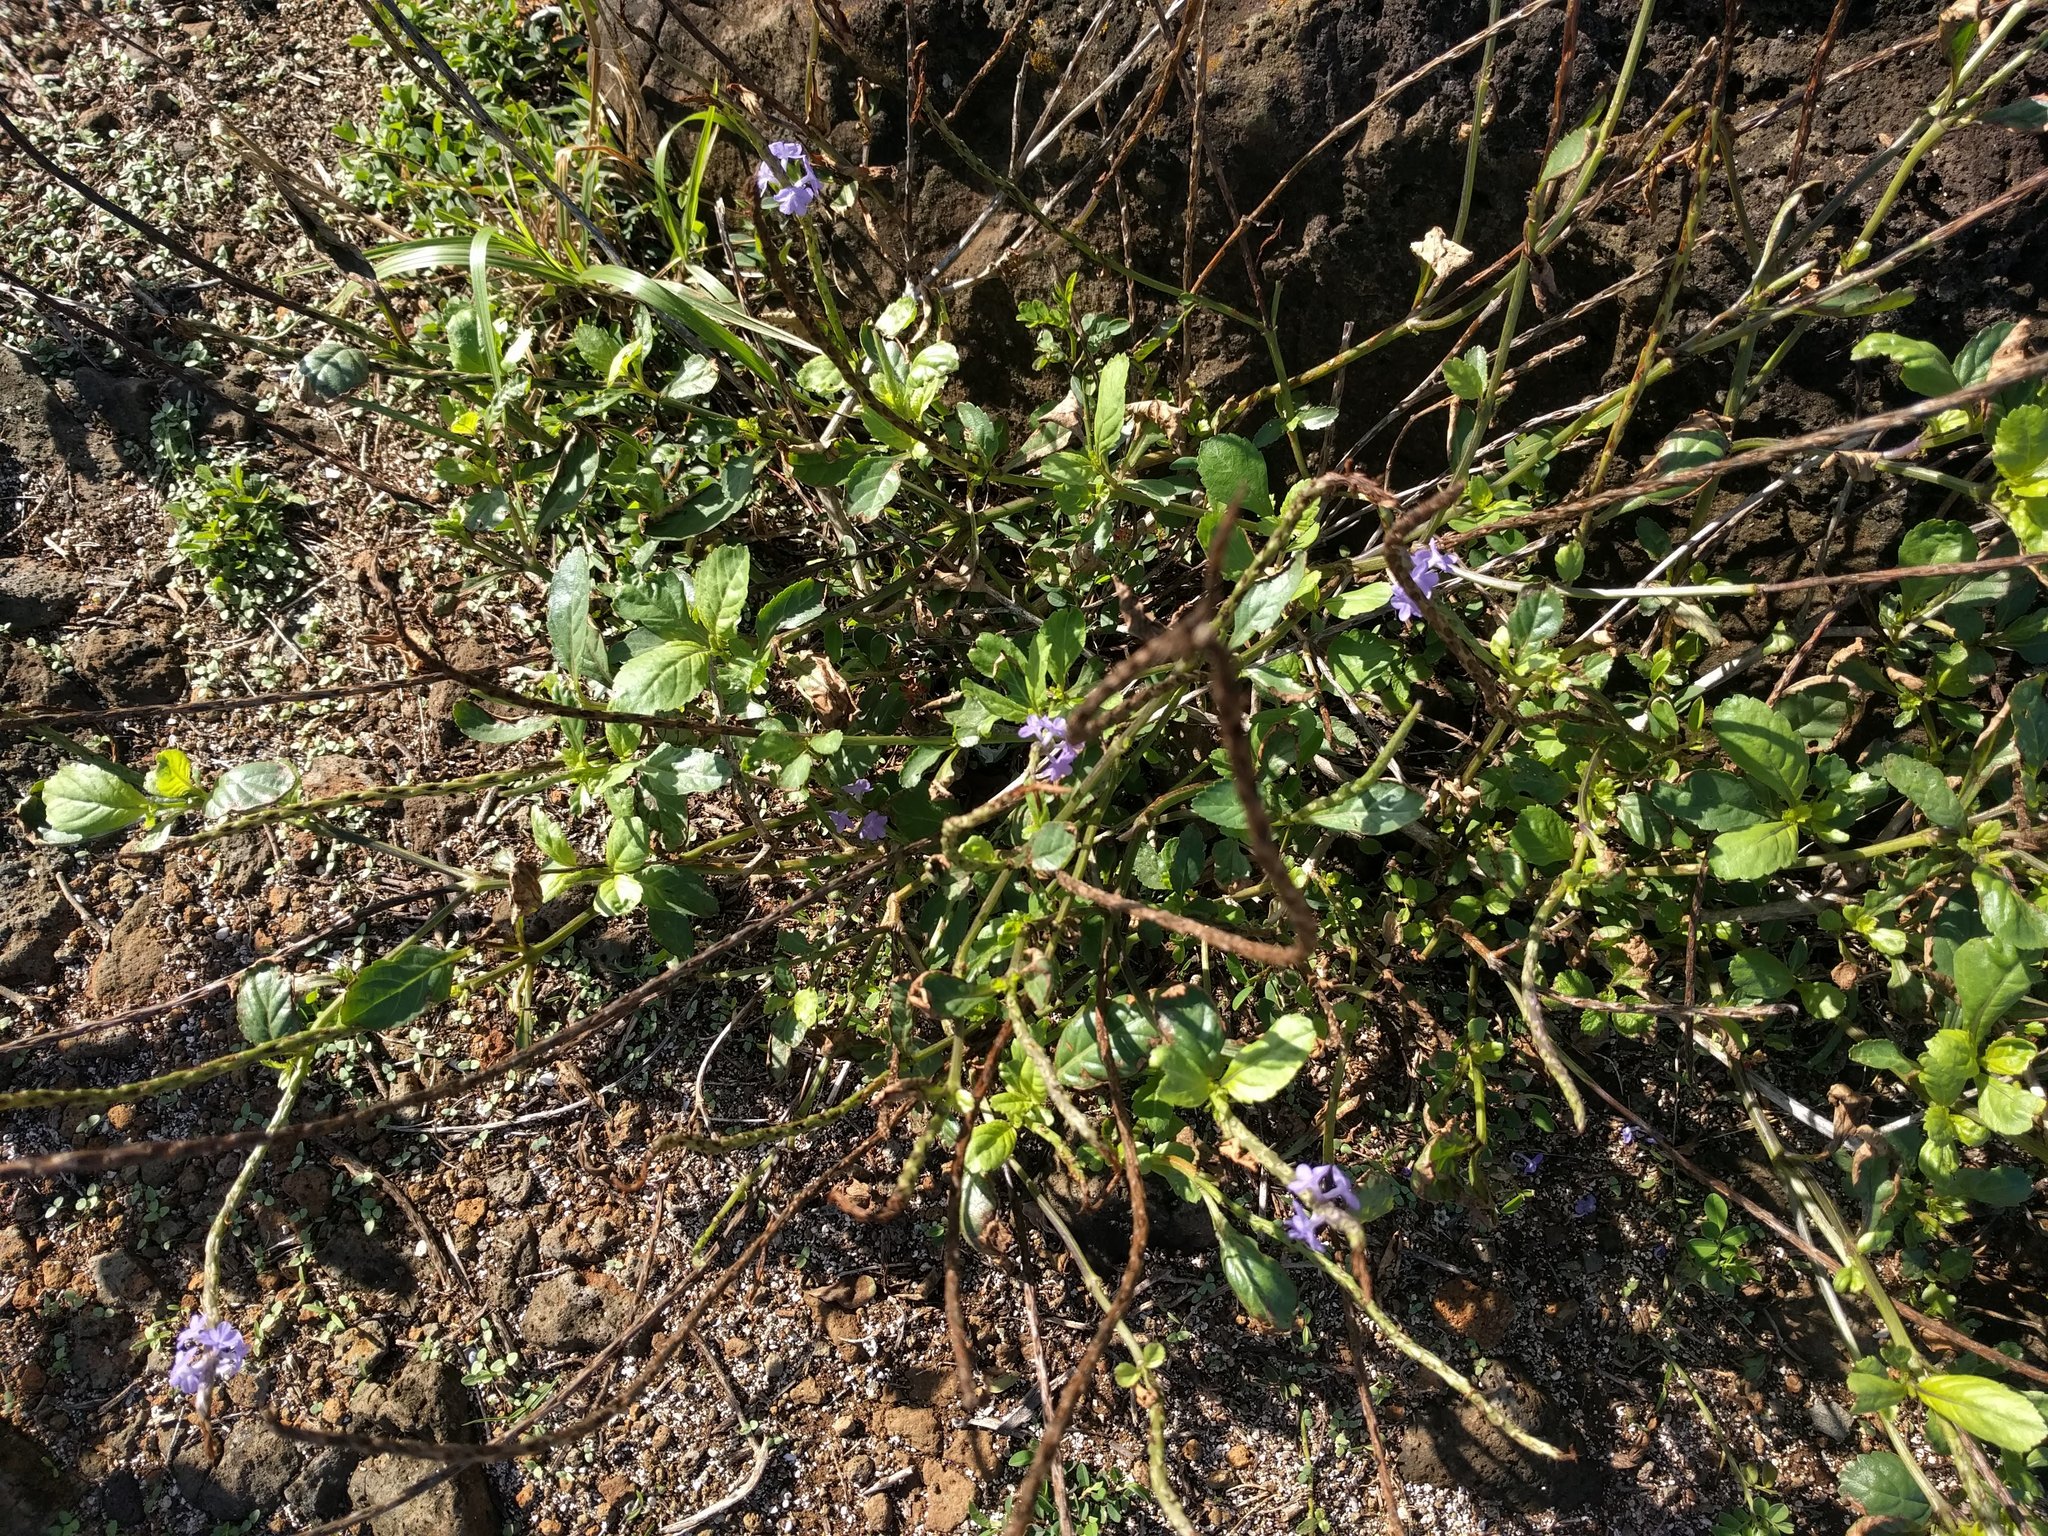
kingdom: Plantae
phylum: Tracheophyta
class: Magnoliopsida
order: Lamiales
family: Verbenaceae
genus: Stachytarpheta
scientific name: Stachytarpheta jamaicensis
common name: Light-blue snakeweed
